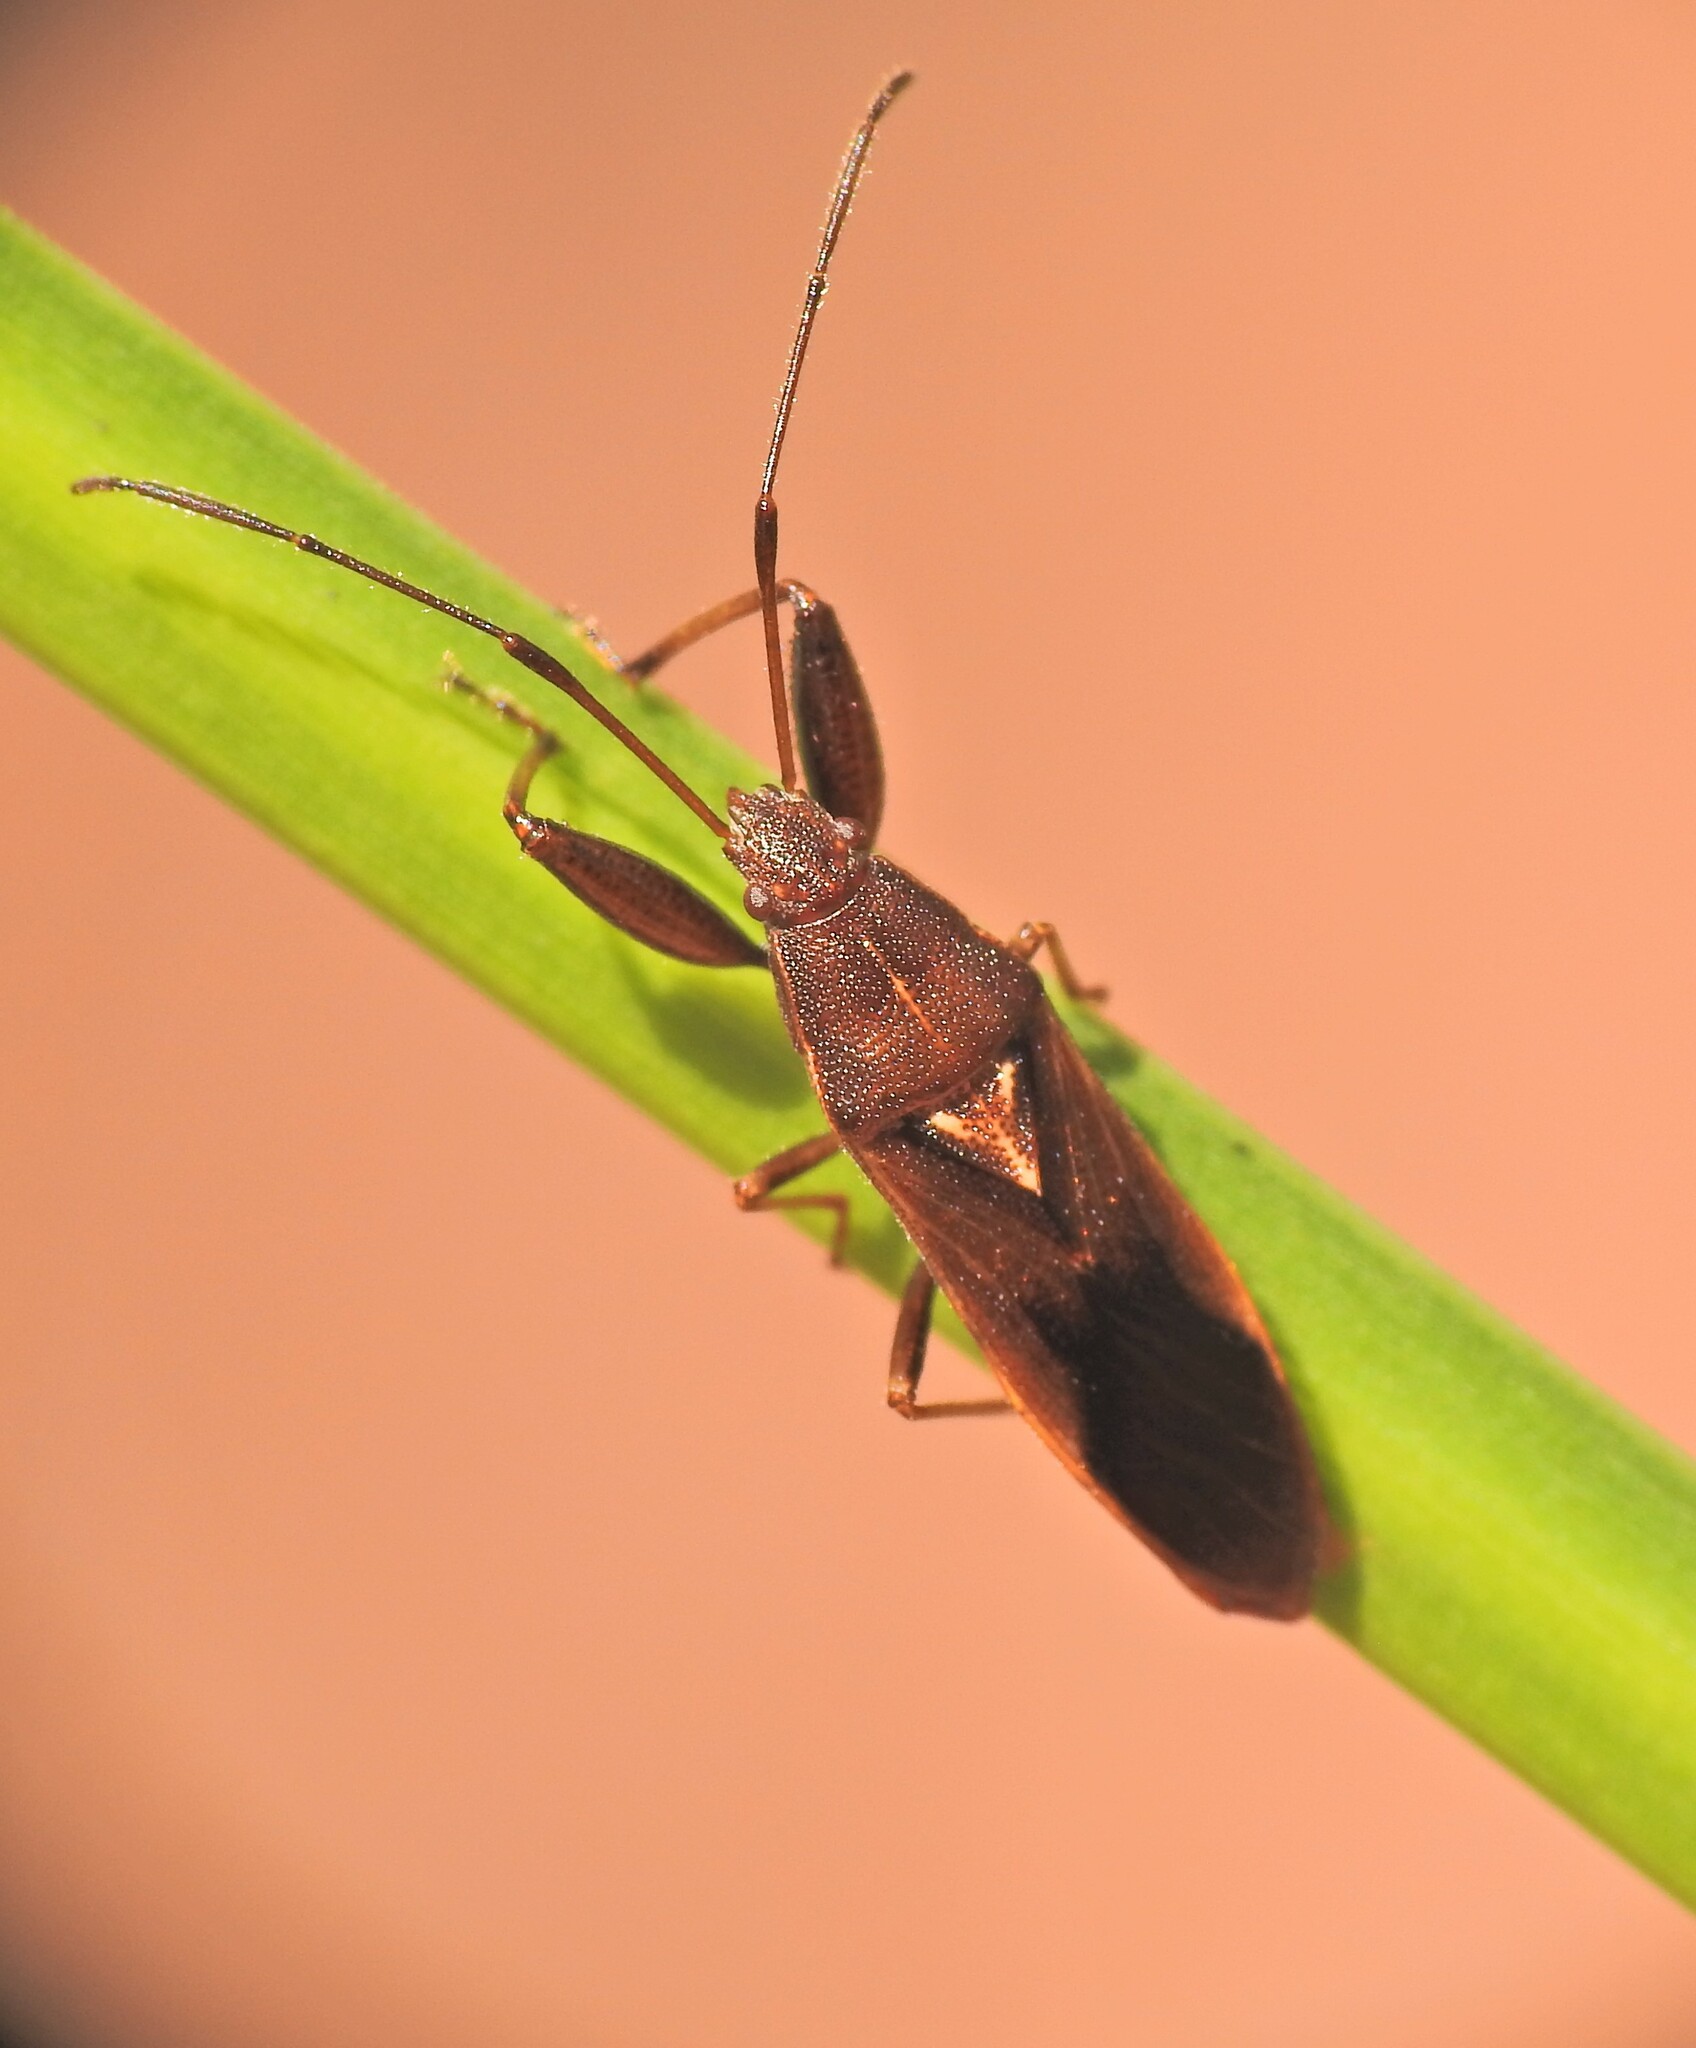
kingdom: Animalia
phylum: Arthropoda
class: Insecta
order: Hemiptera
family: Pachygronthidae
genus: Pachygrontha
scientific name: Pachygrontha robusta
